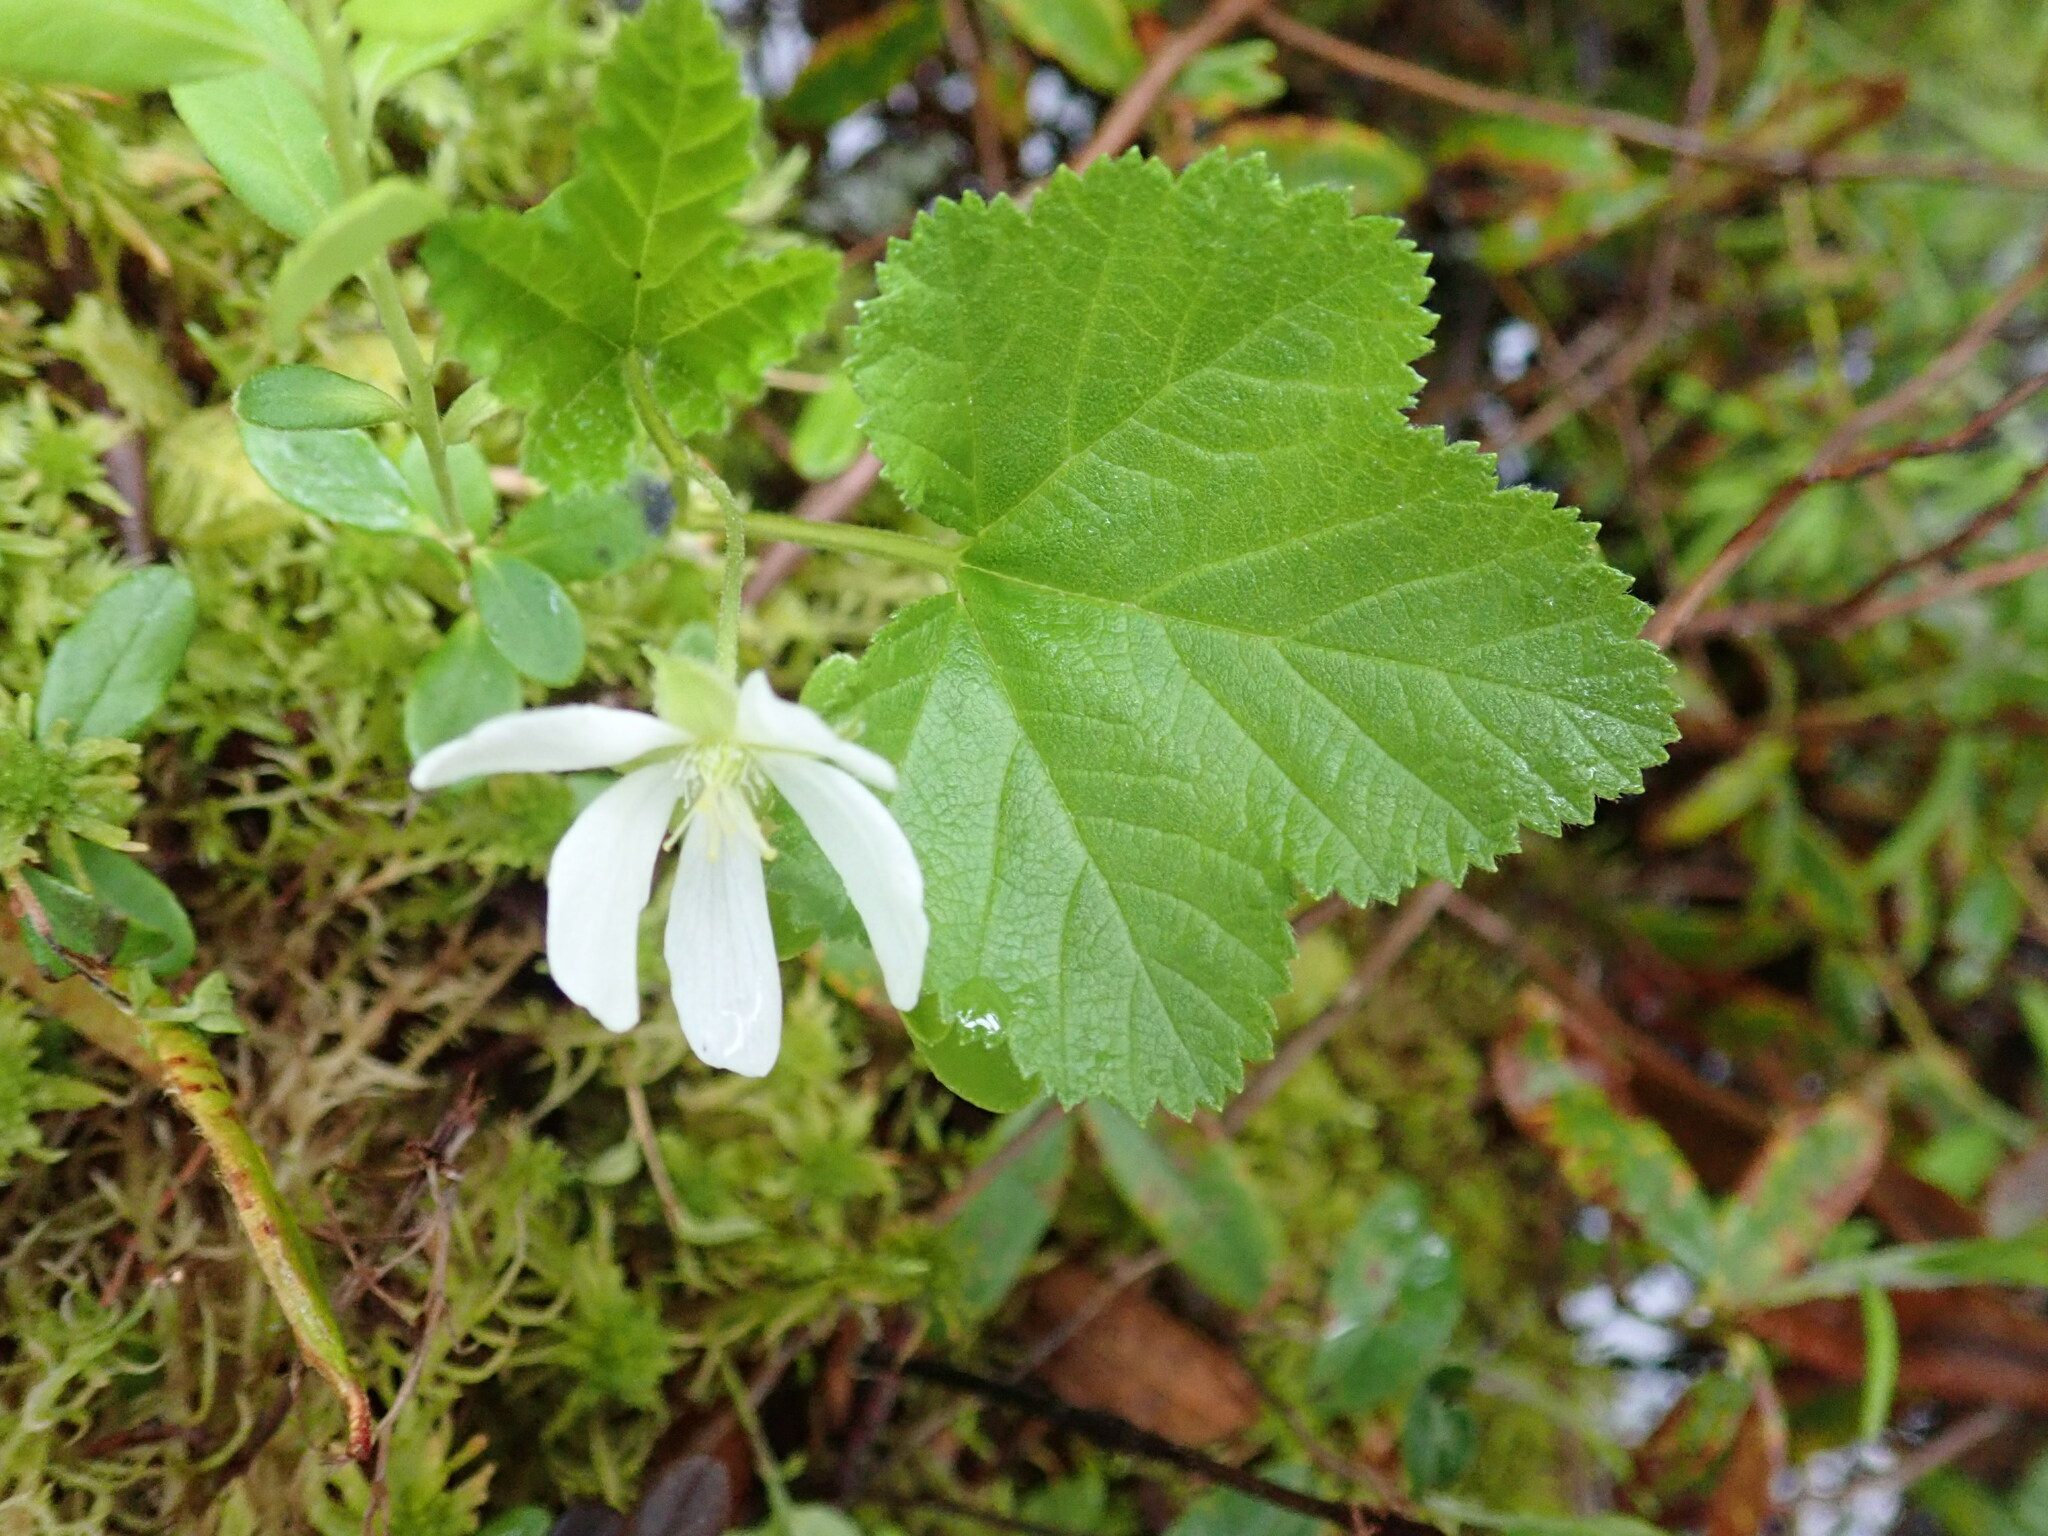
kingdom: Plantae
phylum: Tracheophyta
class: Magnoliopsida
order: Rosales
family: Rosaceae
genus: Rubus
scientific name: Rubus chamaemorus
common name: Cloudberry
